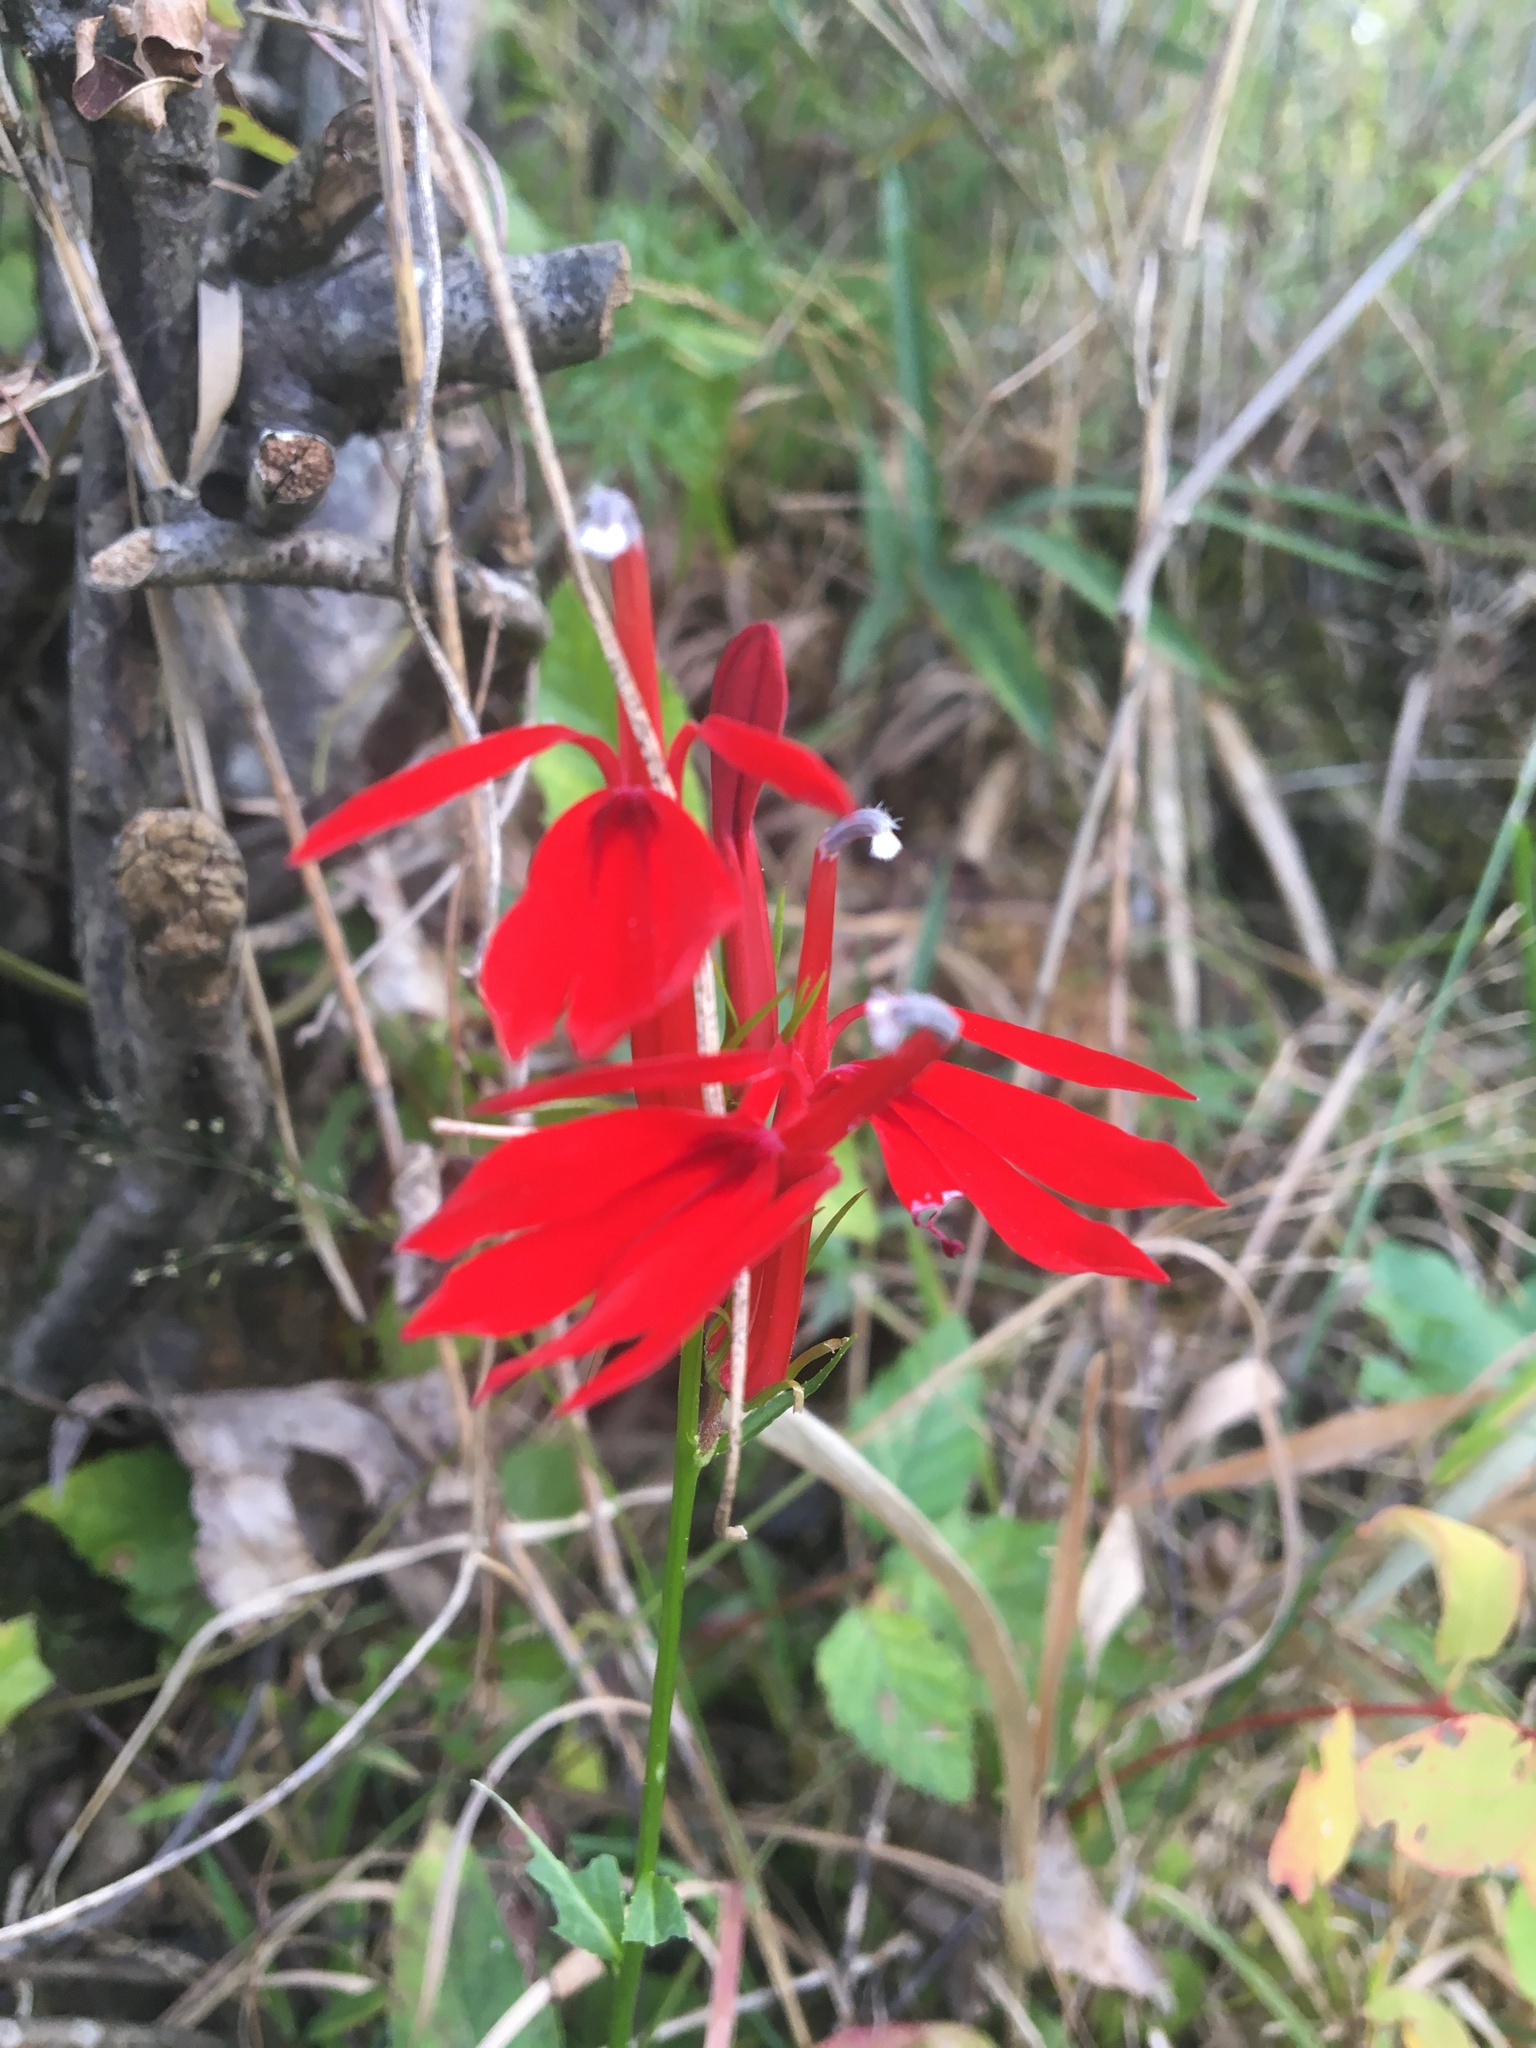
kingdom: Plantae
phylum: Tracheophyta
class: Magnoliopsida
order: Asterales
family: Campanulaceae
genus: Lobelia
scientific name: Lobelia cardinalis
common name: Cardinal flower
